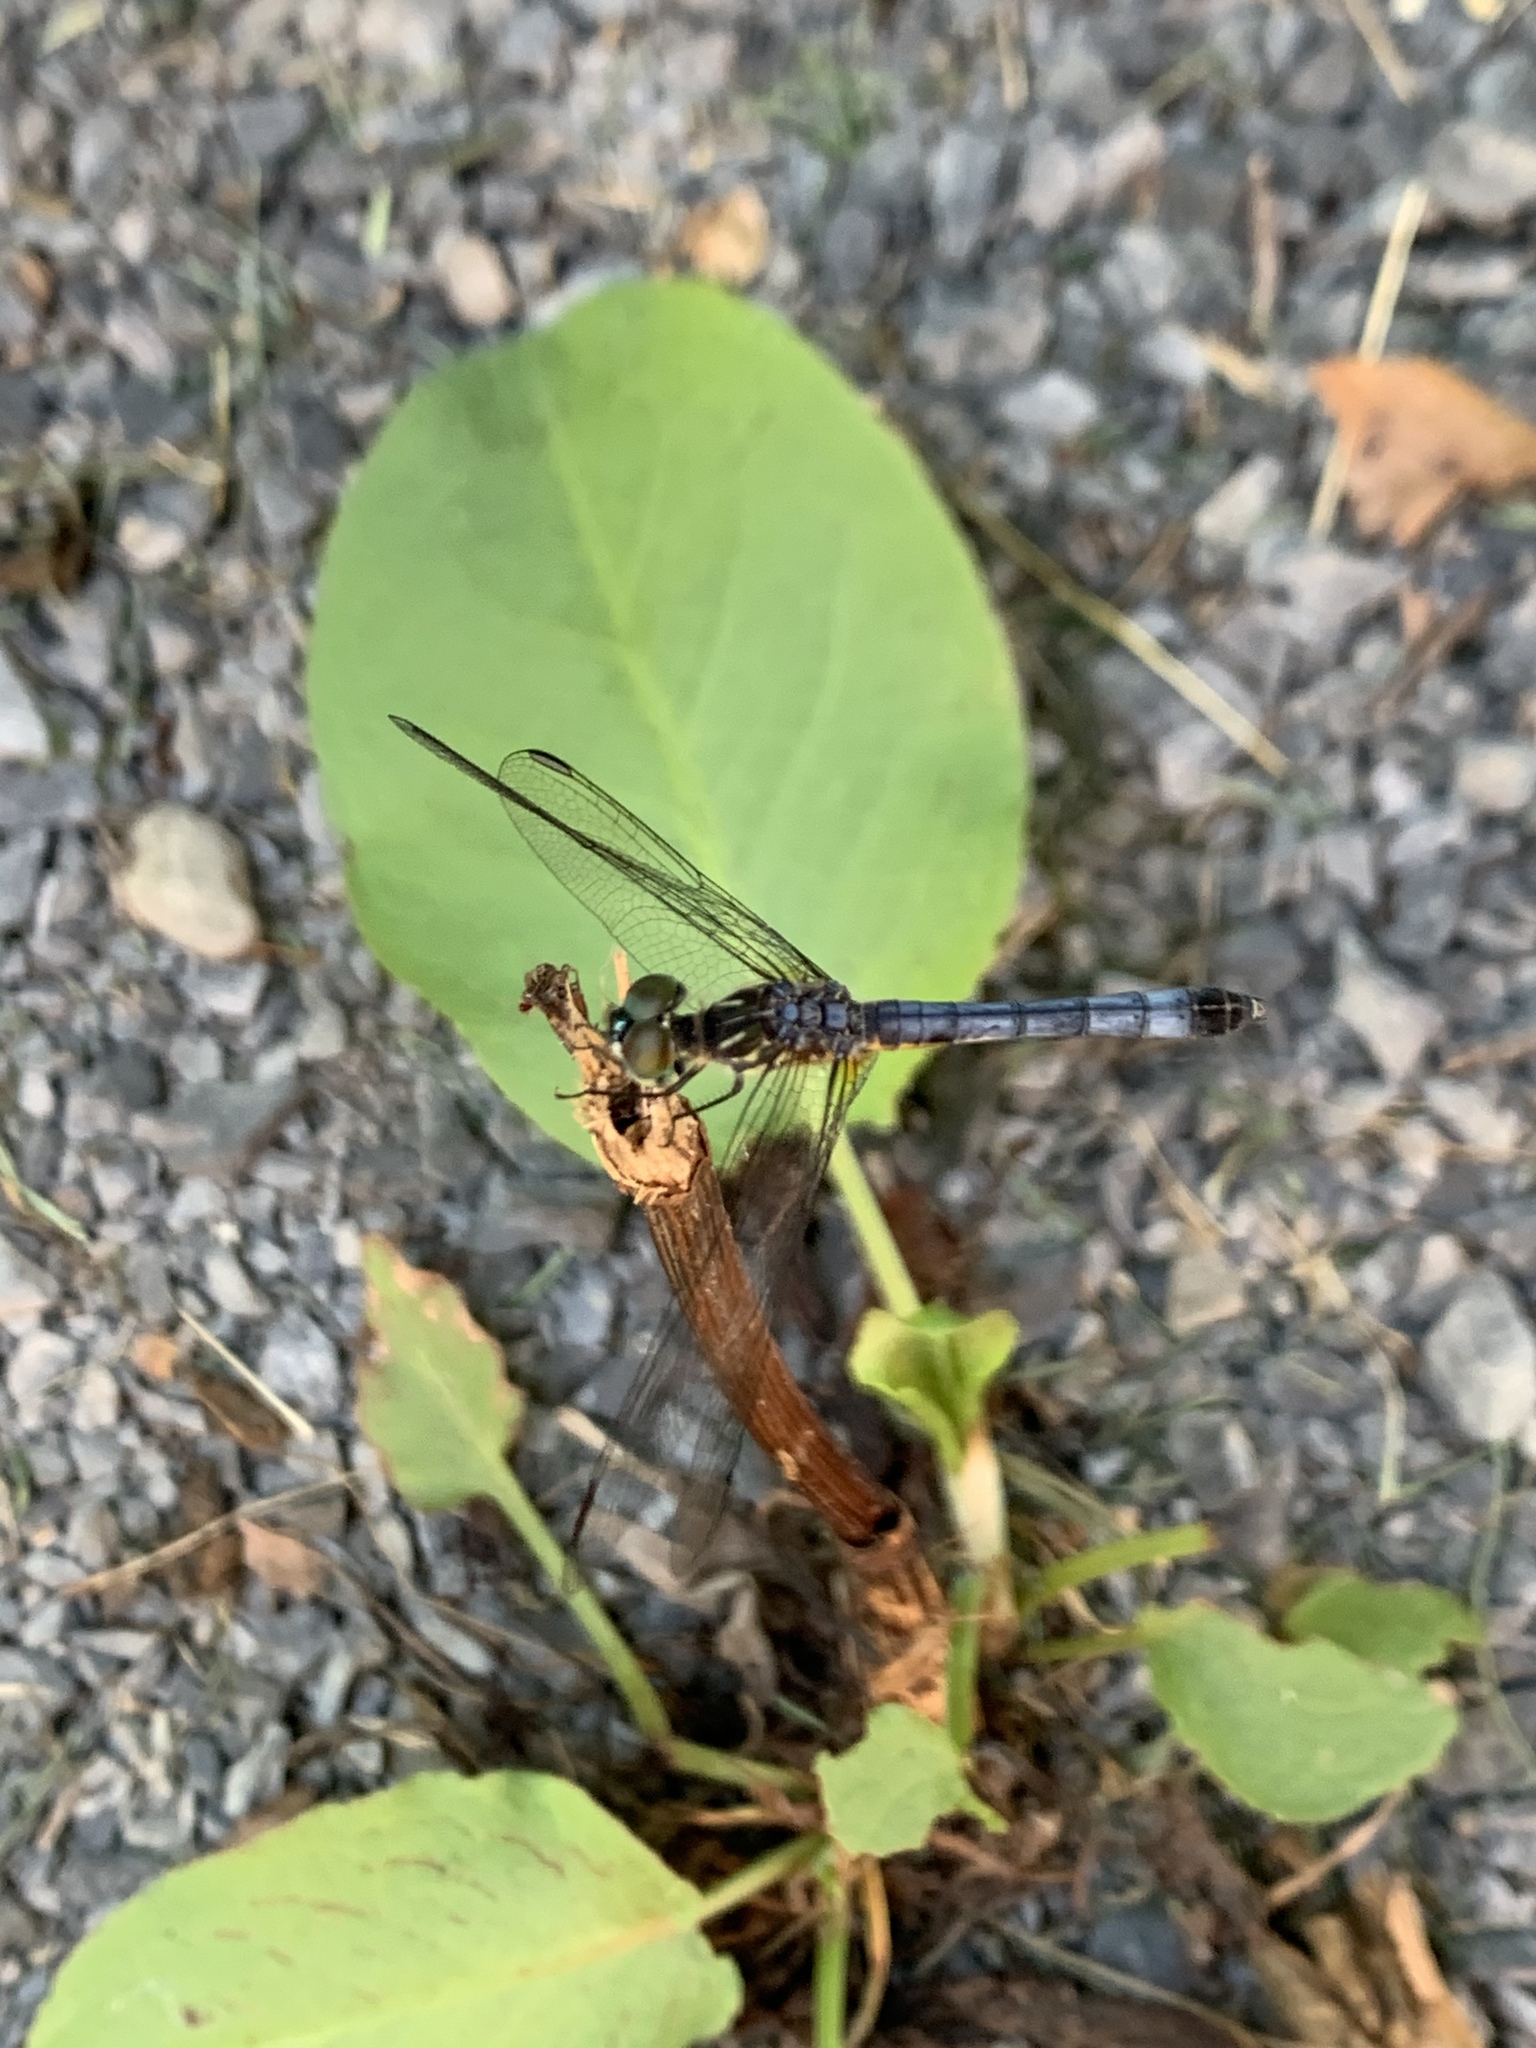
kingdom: Animalia
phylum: Arthropoda
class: Insecta
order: Odonata
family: Libellulidae
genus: Pachydiplax
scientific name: Pachydiplax longipennis
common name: Blue dasher
